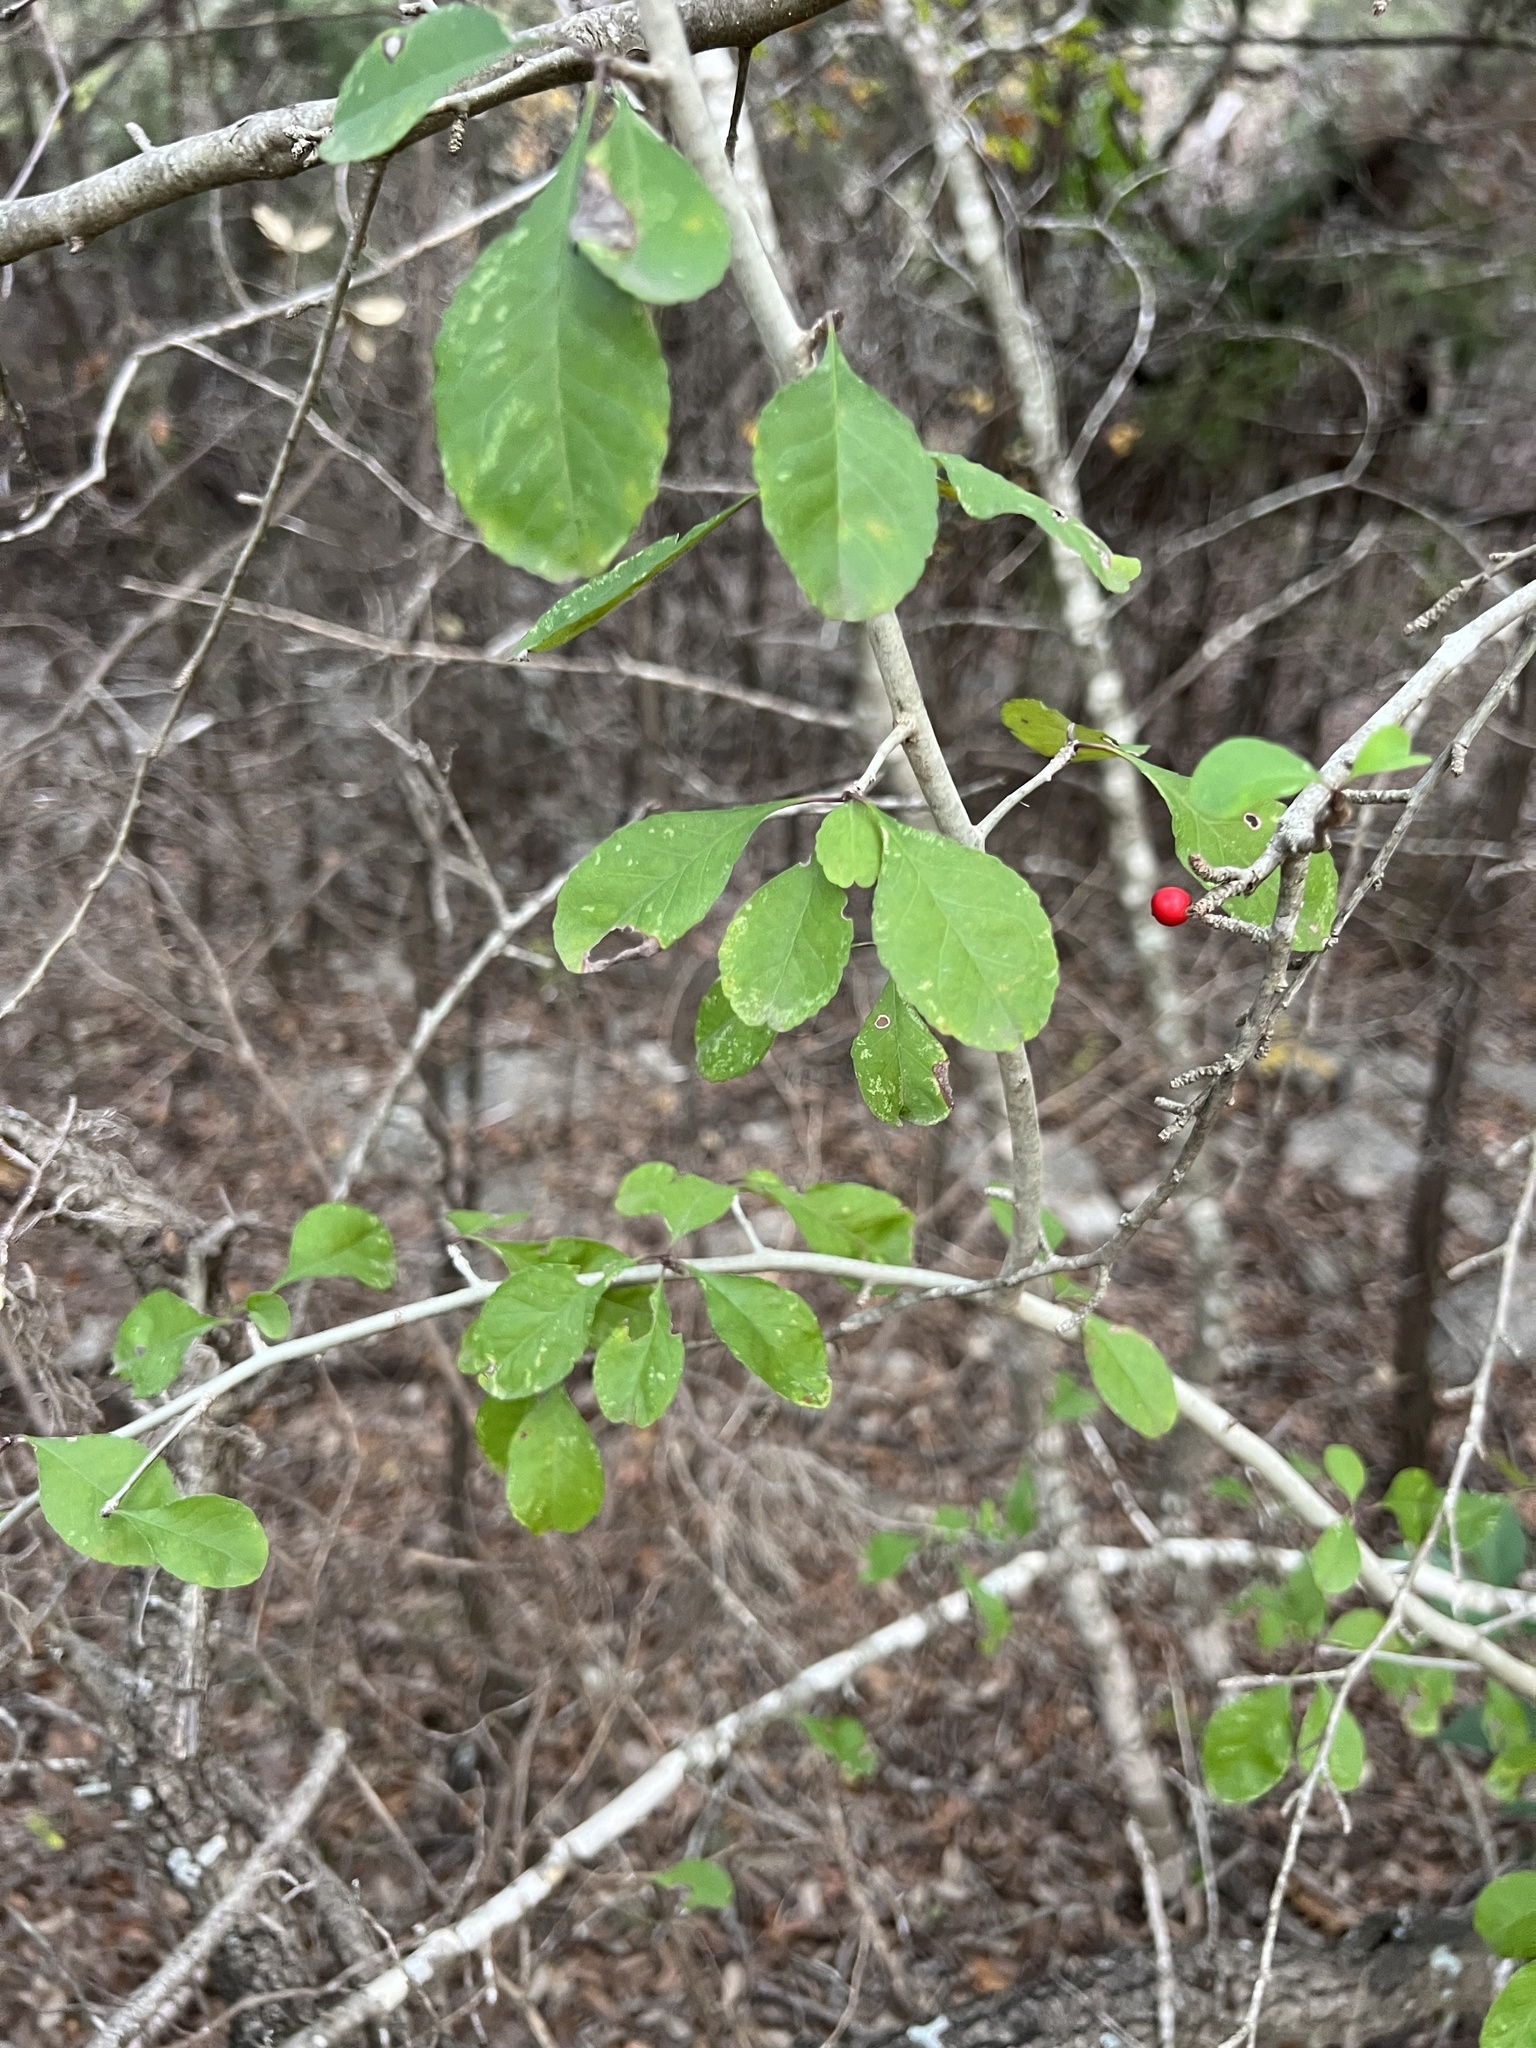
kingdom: Plantae
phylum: Tracheophyta
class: Magnoliopsida
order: Aquifoliales
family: Aquifoliaceae
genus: Ilex
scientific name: Ilex decidua
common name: Possum-haw
